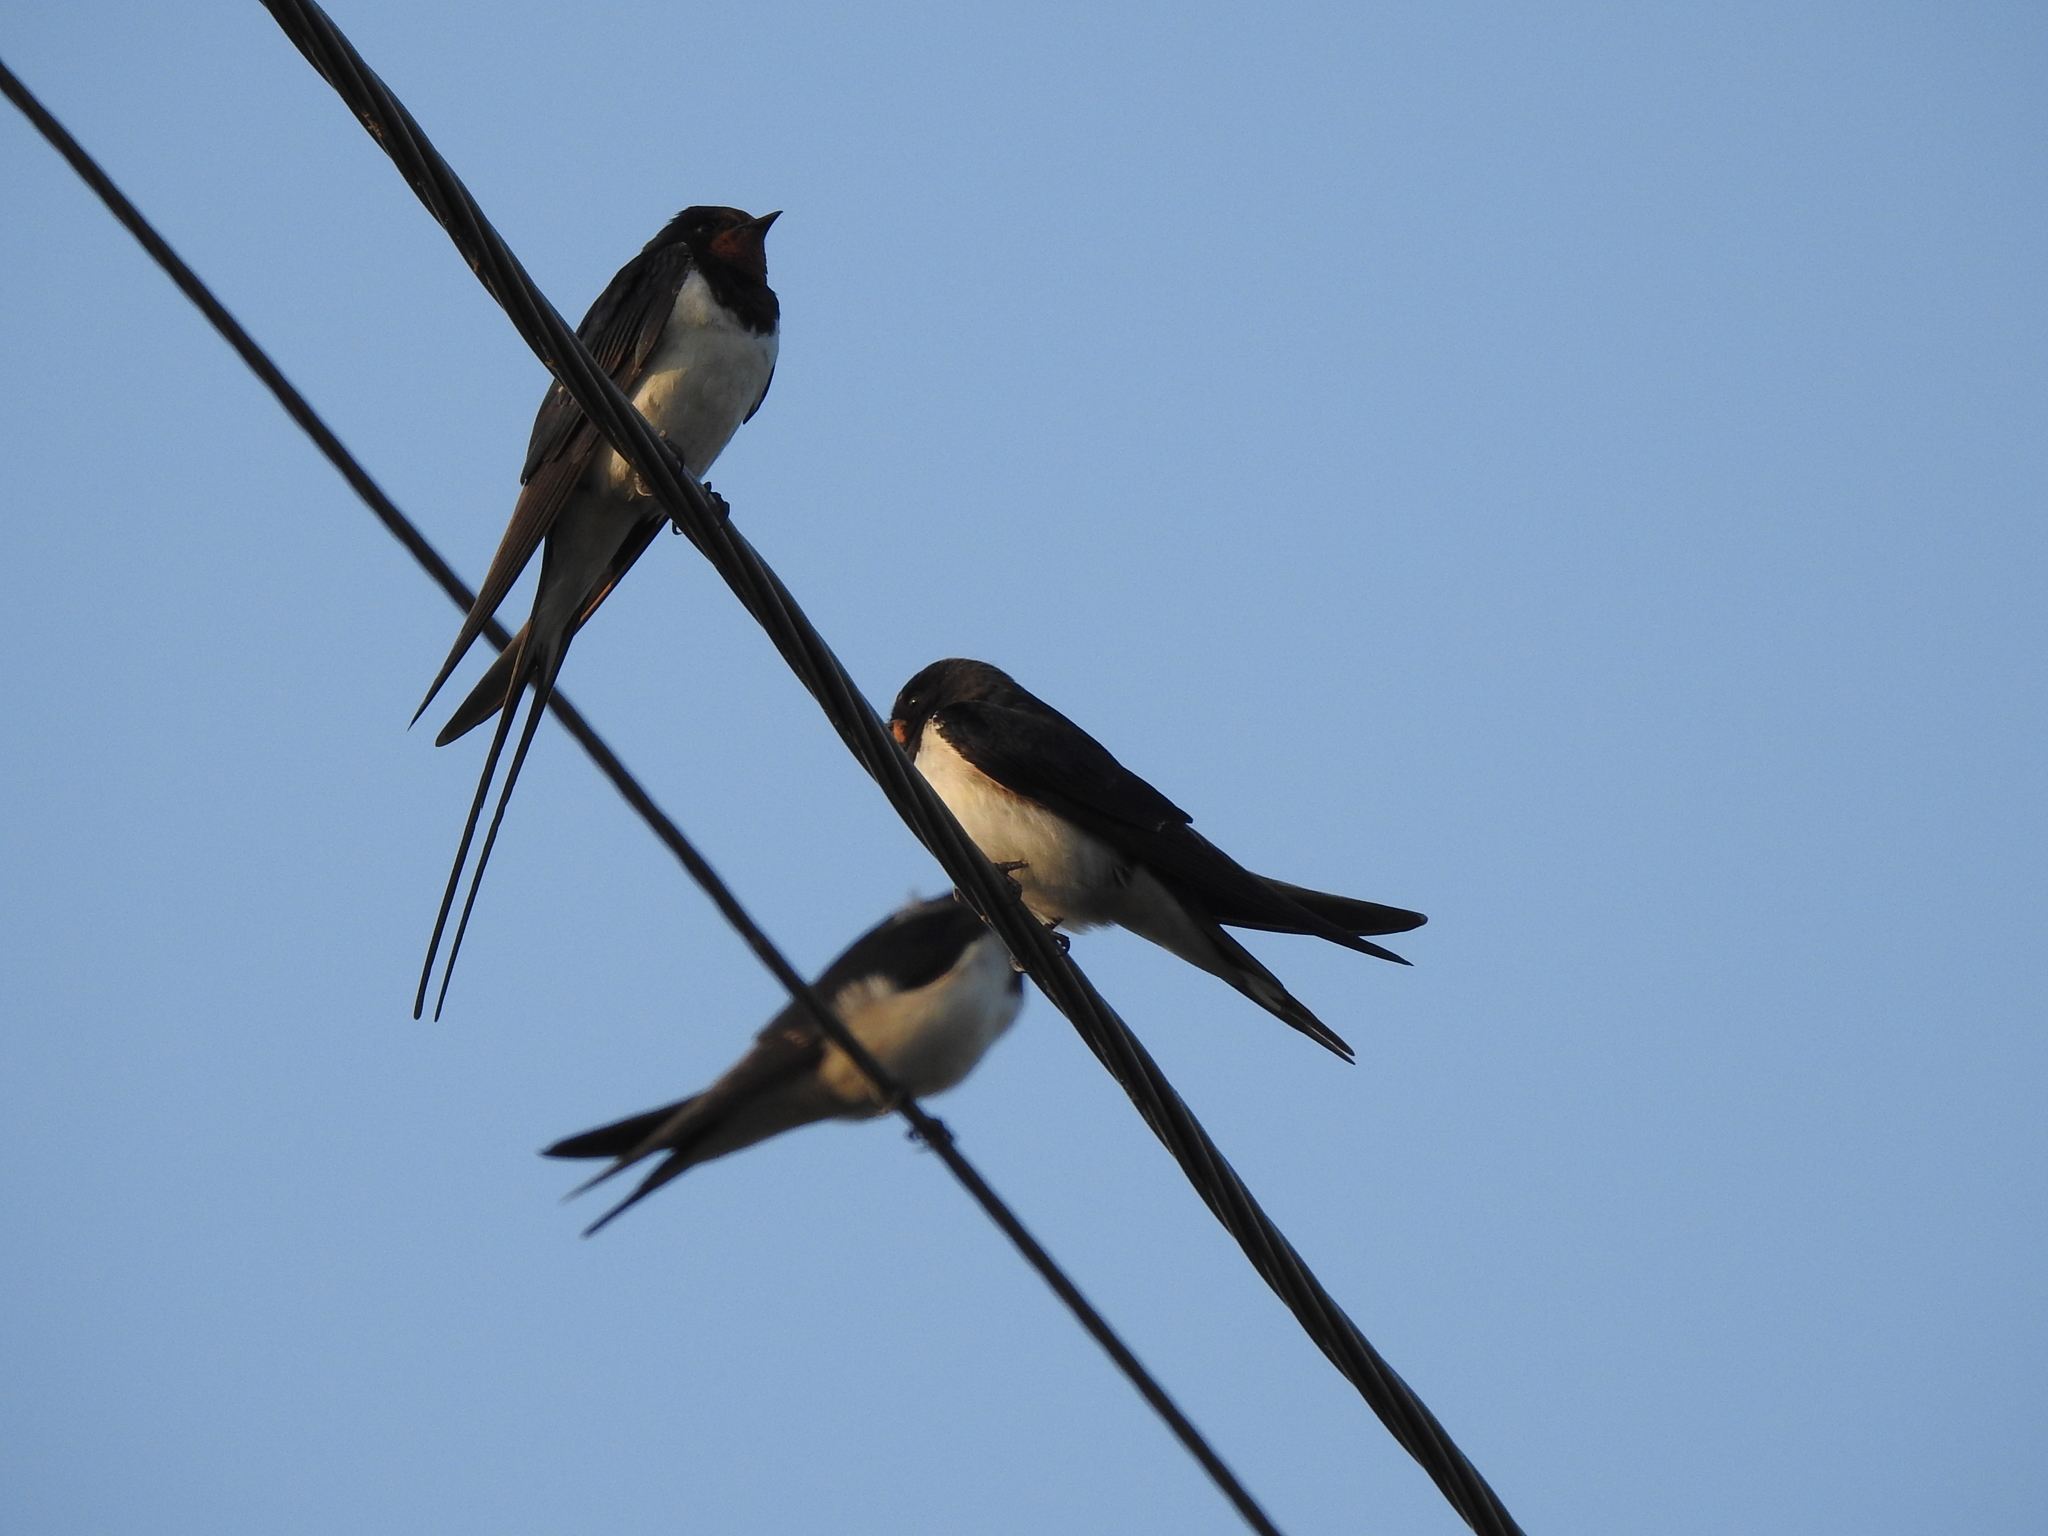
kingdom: Animalia
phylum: Chordata
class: Aves
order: Passeriformes
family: Hirundinidae
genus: Hirundo
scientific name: Hirundo rustica
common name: Barn swallow
